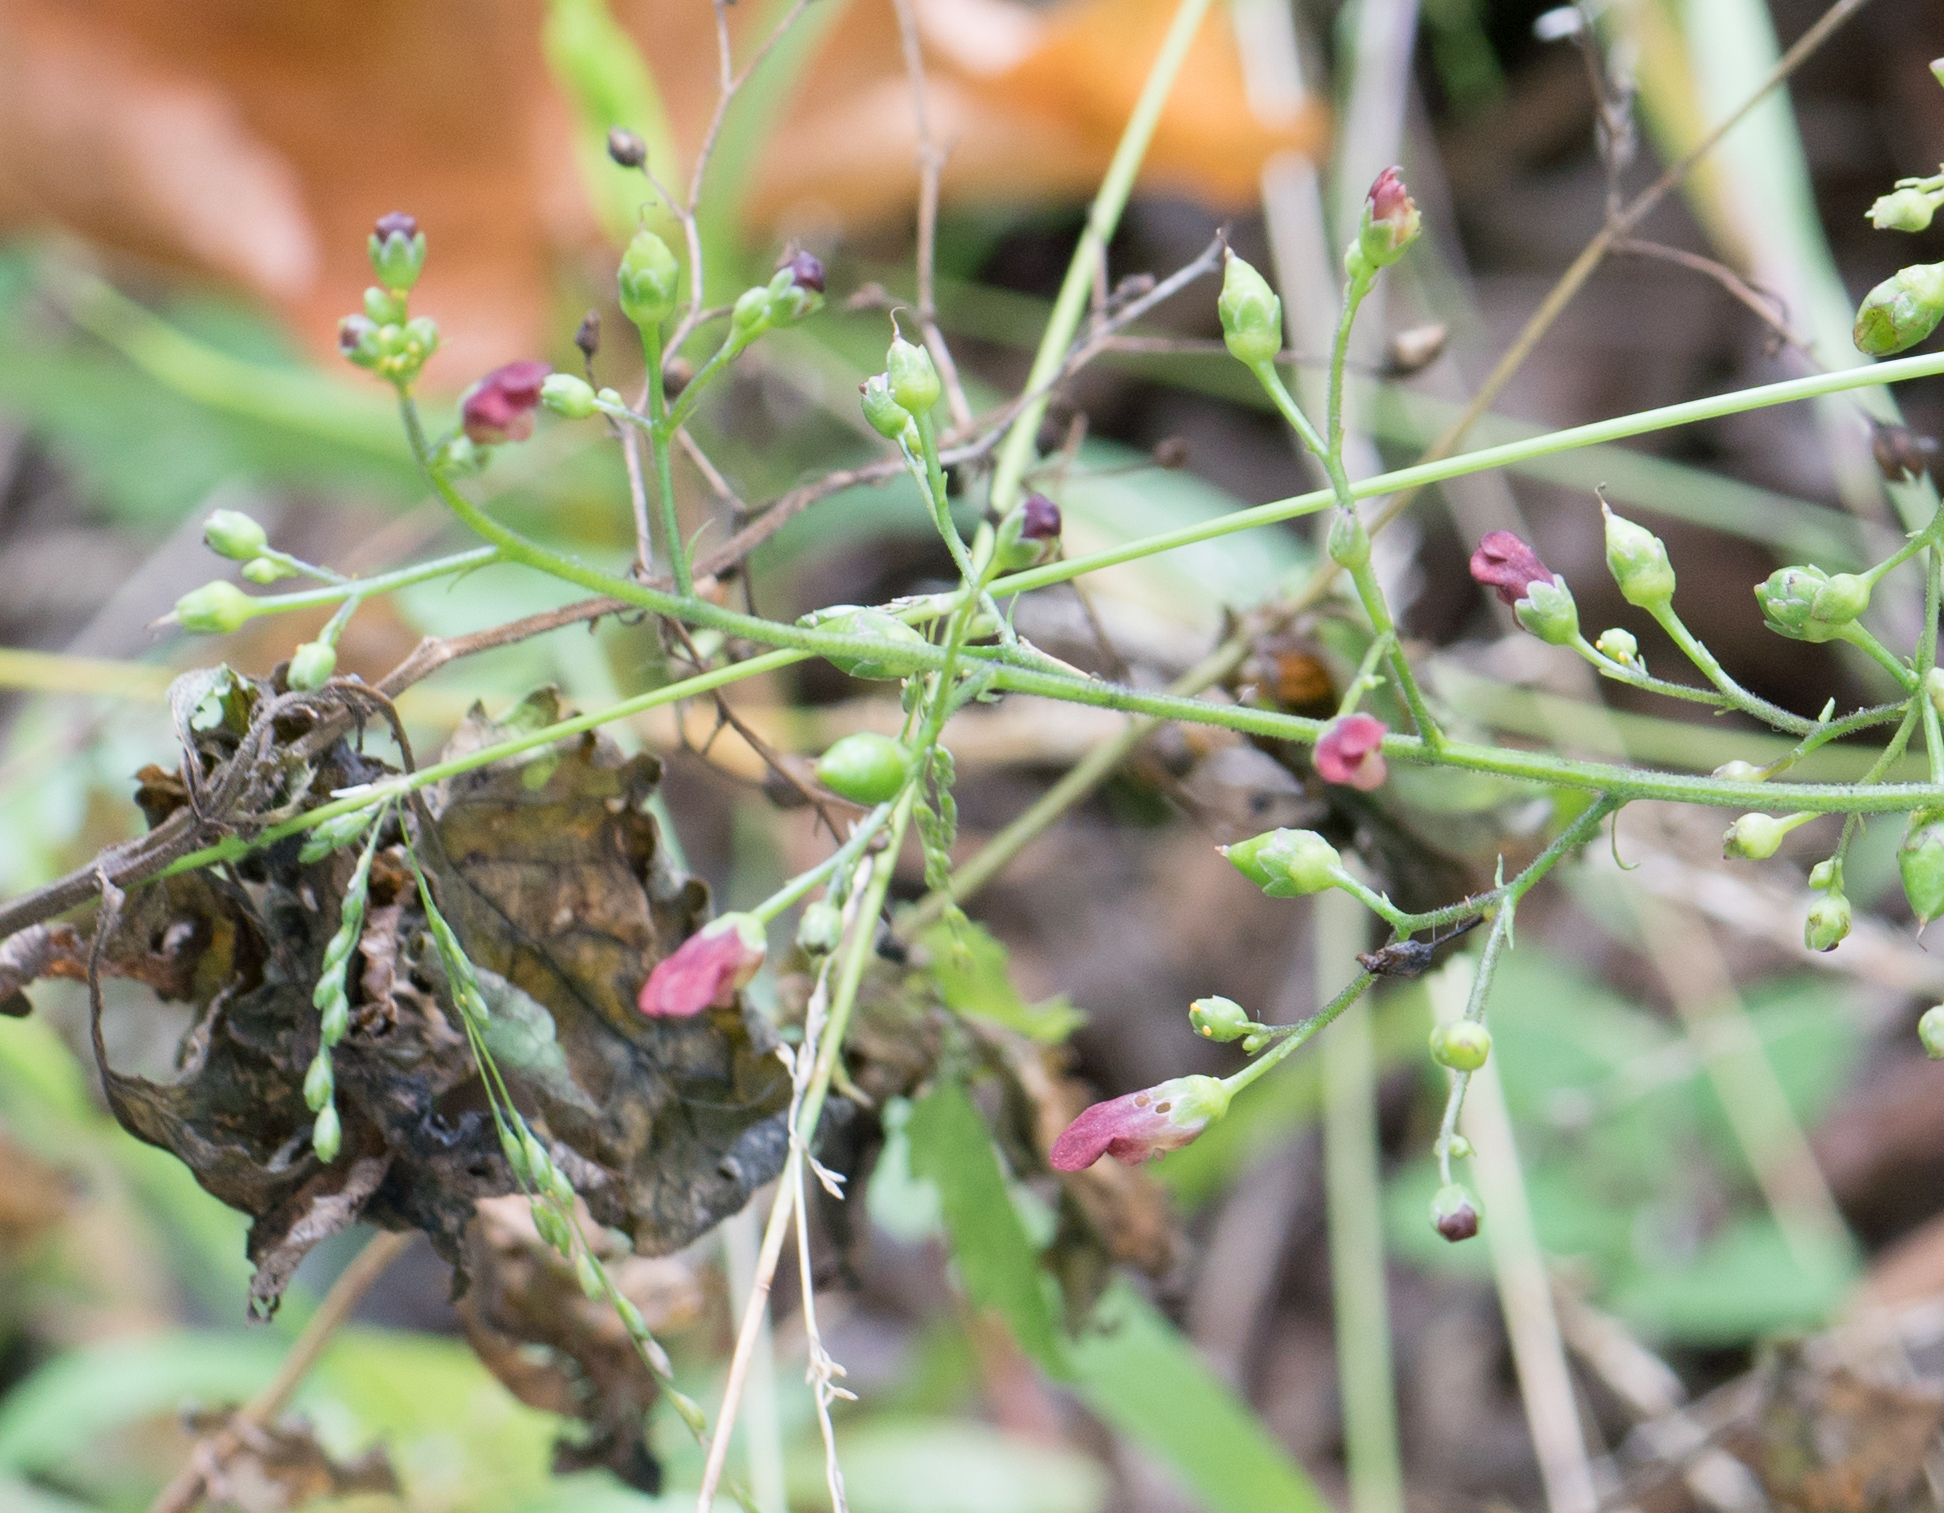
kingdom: Plantae
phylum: Tracheophyta
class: Magnoliopsida
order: Lamiales
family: Scrophulariaceae
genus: Scrophularia
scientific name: Scrophularia californica
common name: California figwort
